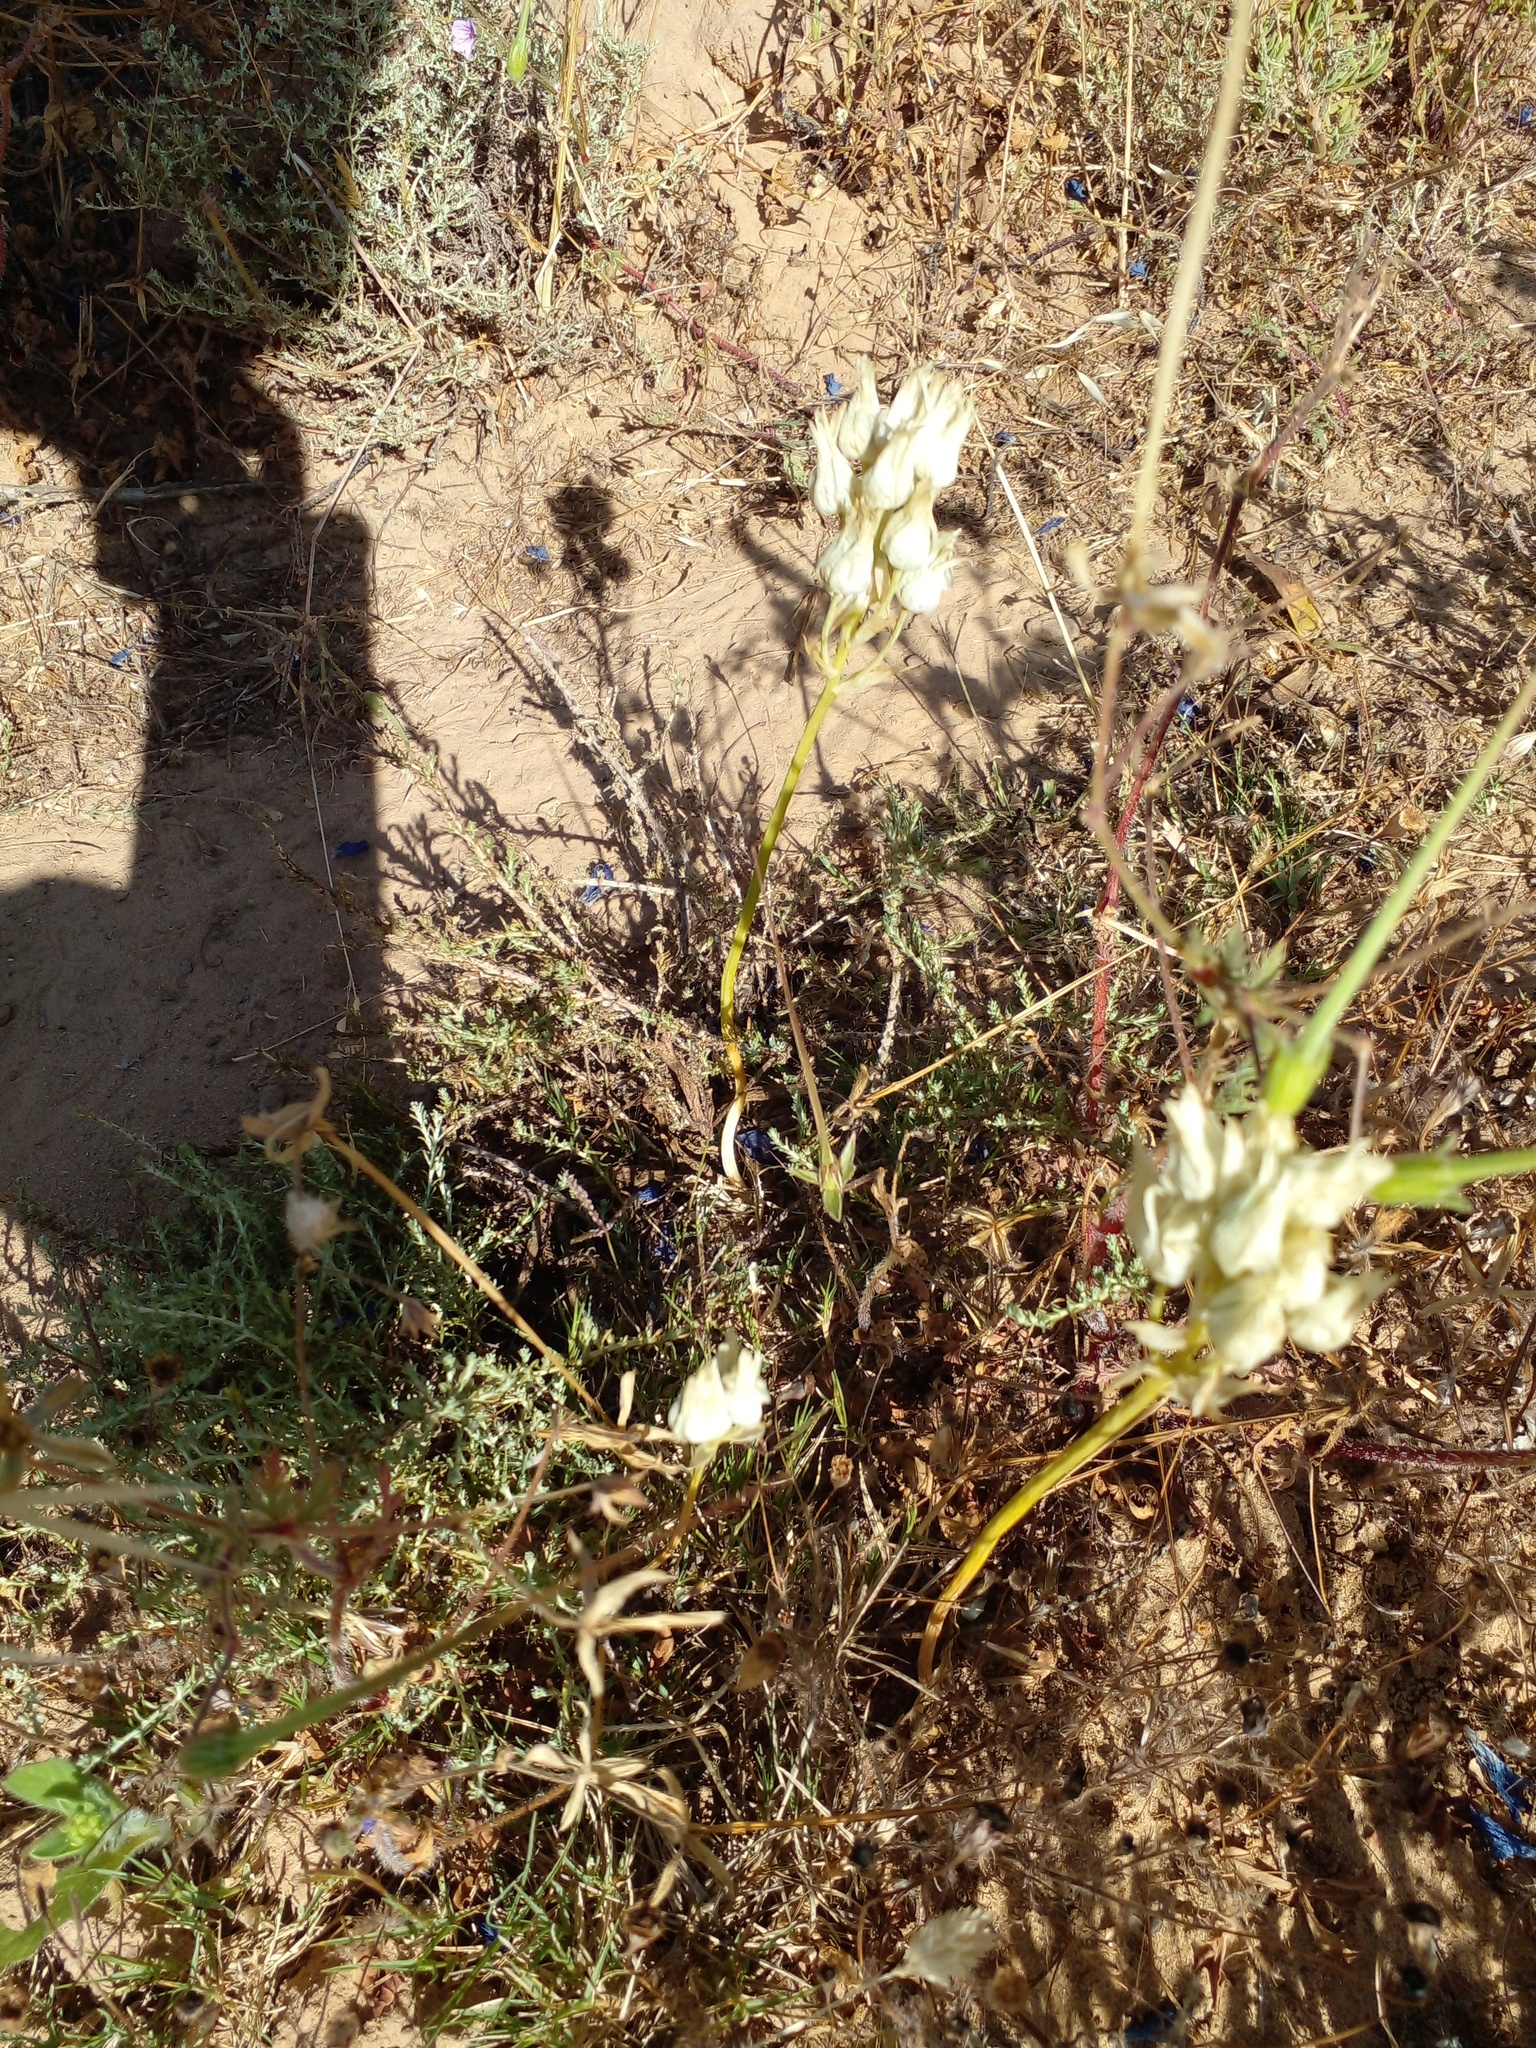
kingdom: Plantae
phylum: Tracheophyta
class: Liliopsida
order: Asparagales
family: Asparagaceae
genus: Ornithogalum
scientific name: Ornithogalum thyrsoides
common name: Chincherinchee
